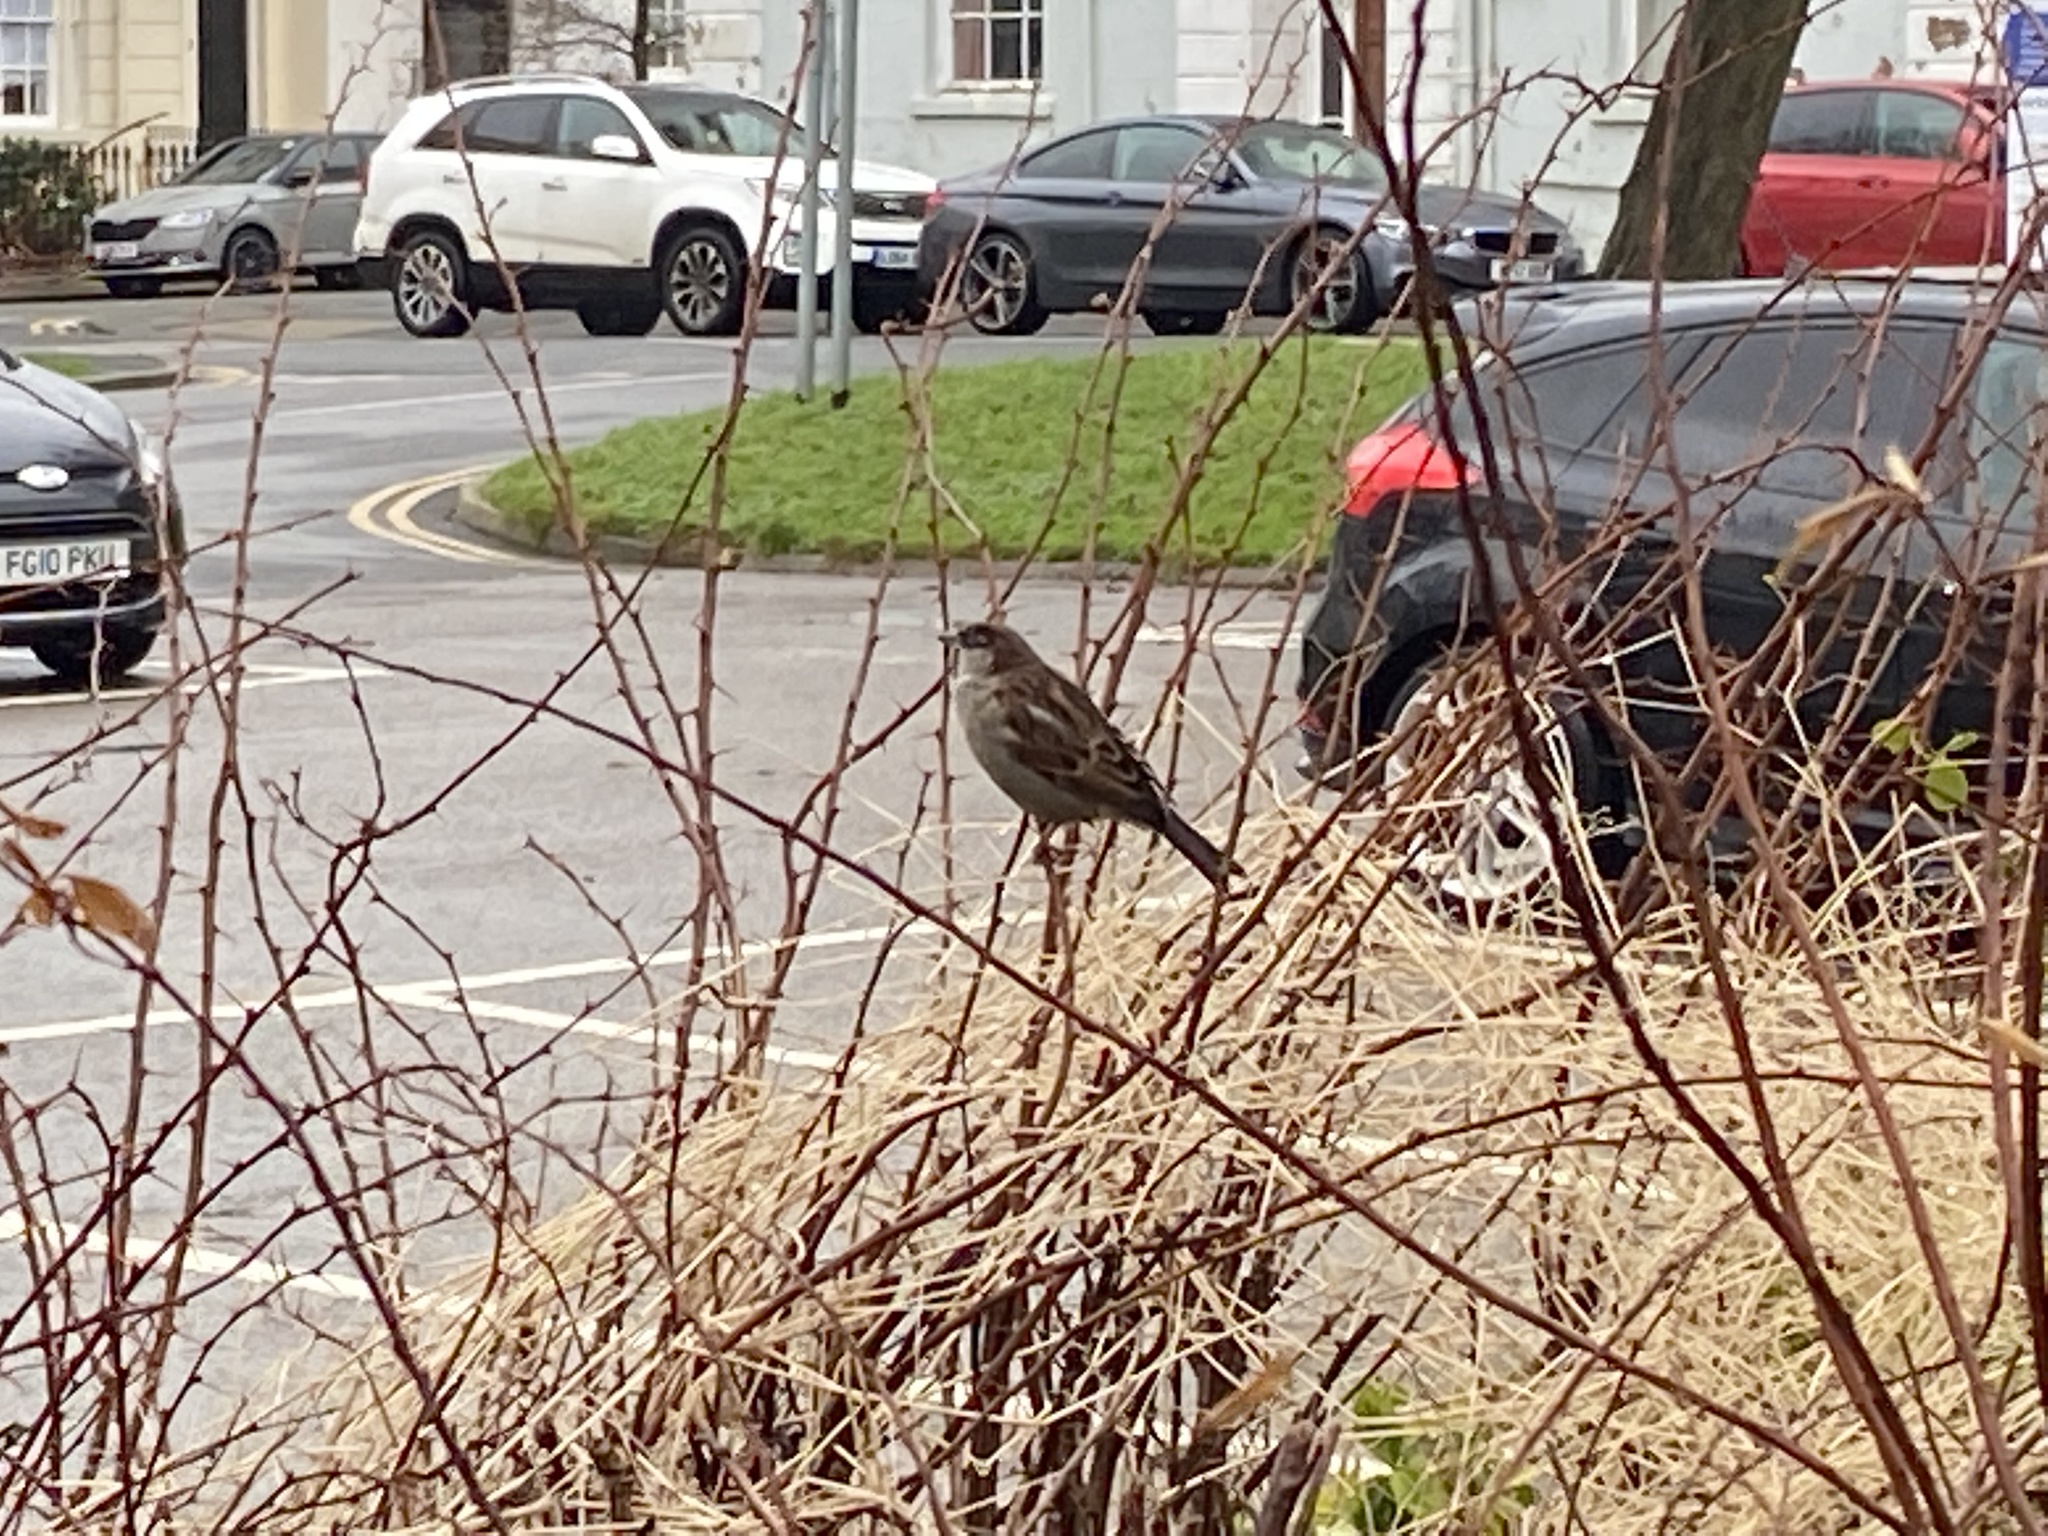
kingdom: Animalia
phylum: Chordata
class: Aves
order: Passeriformes
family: Passeridae
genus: Passer
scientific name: Passer domesticus
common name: House sparrow
